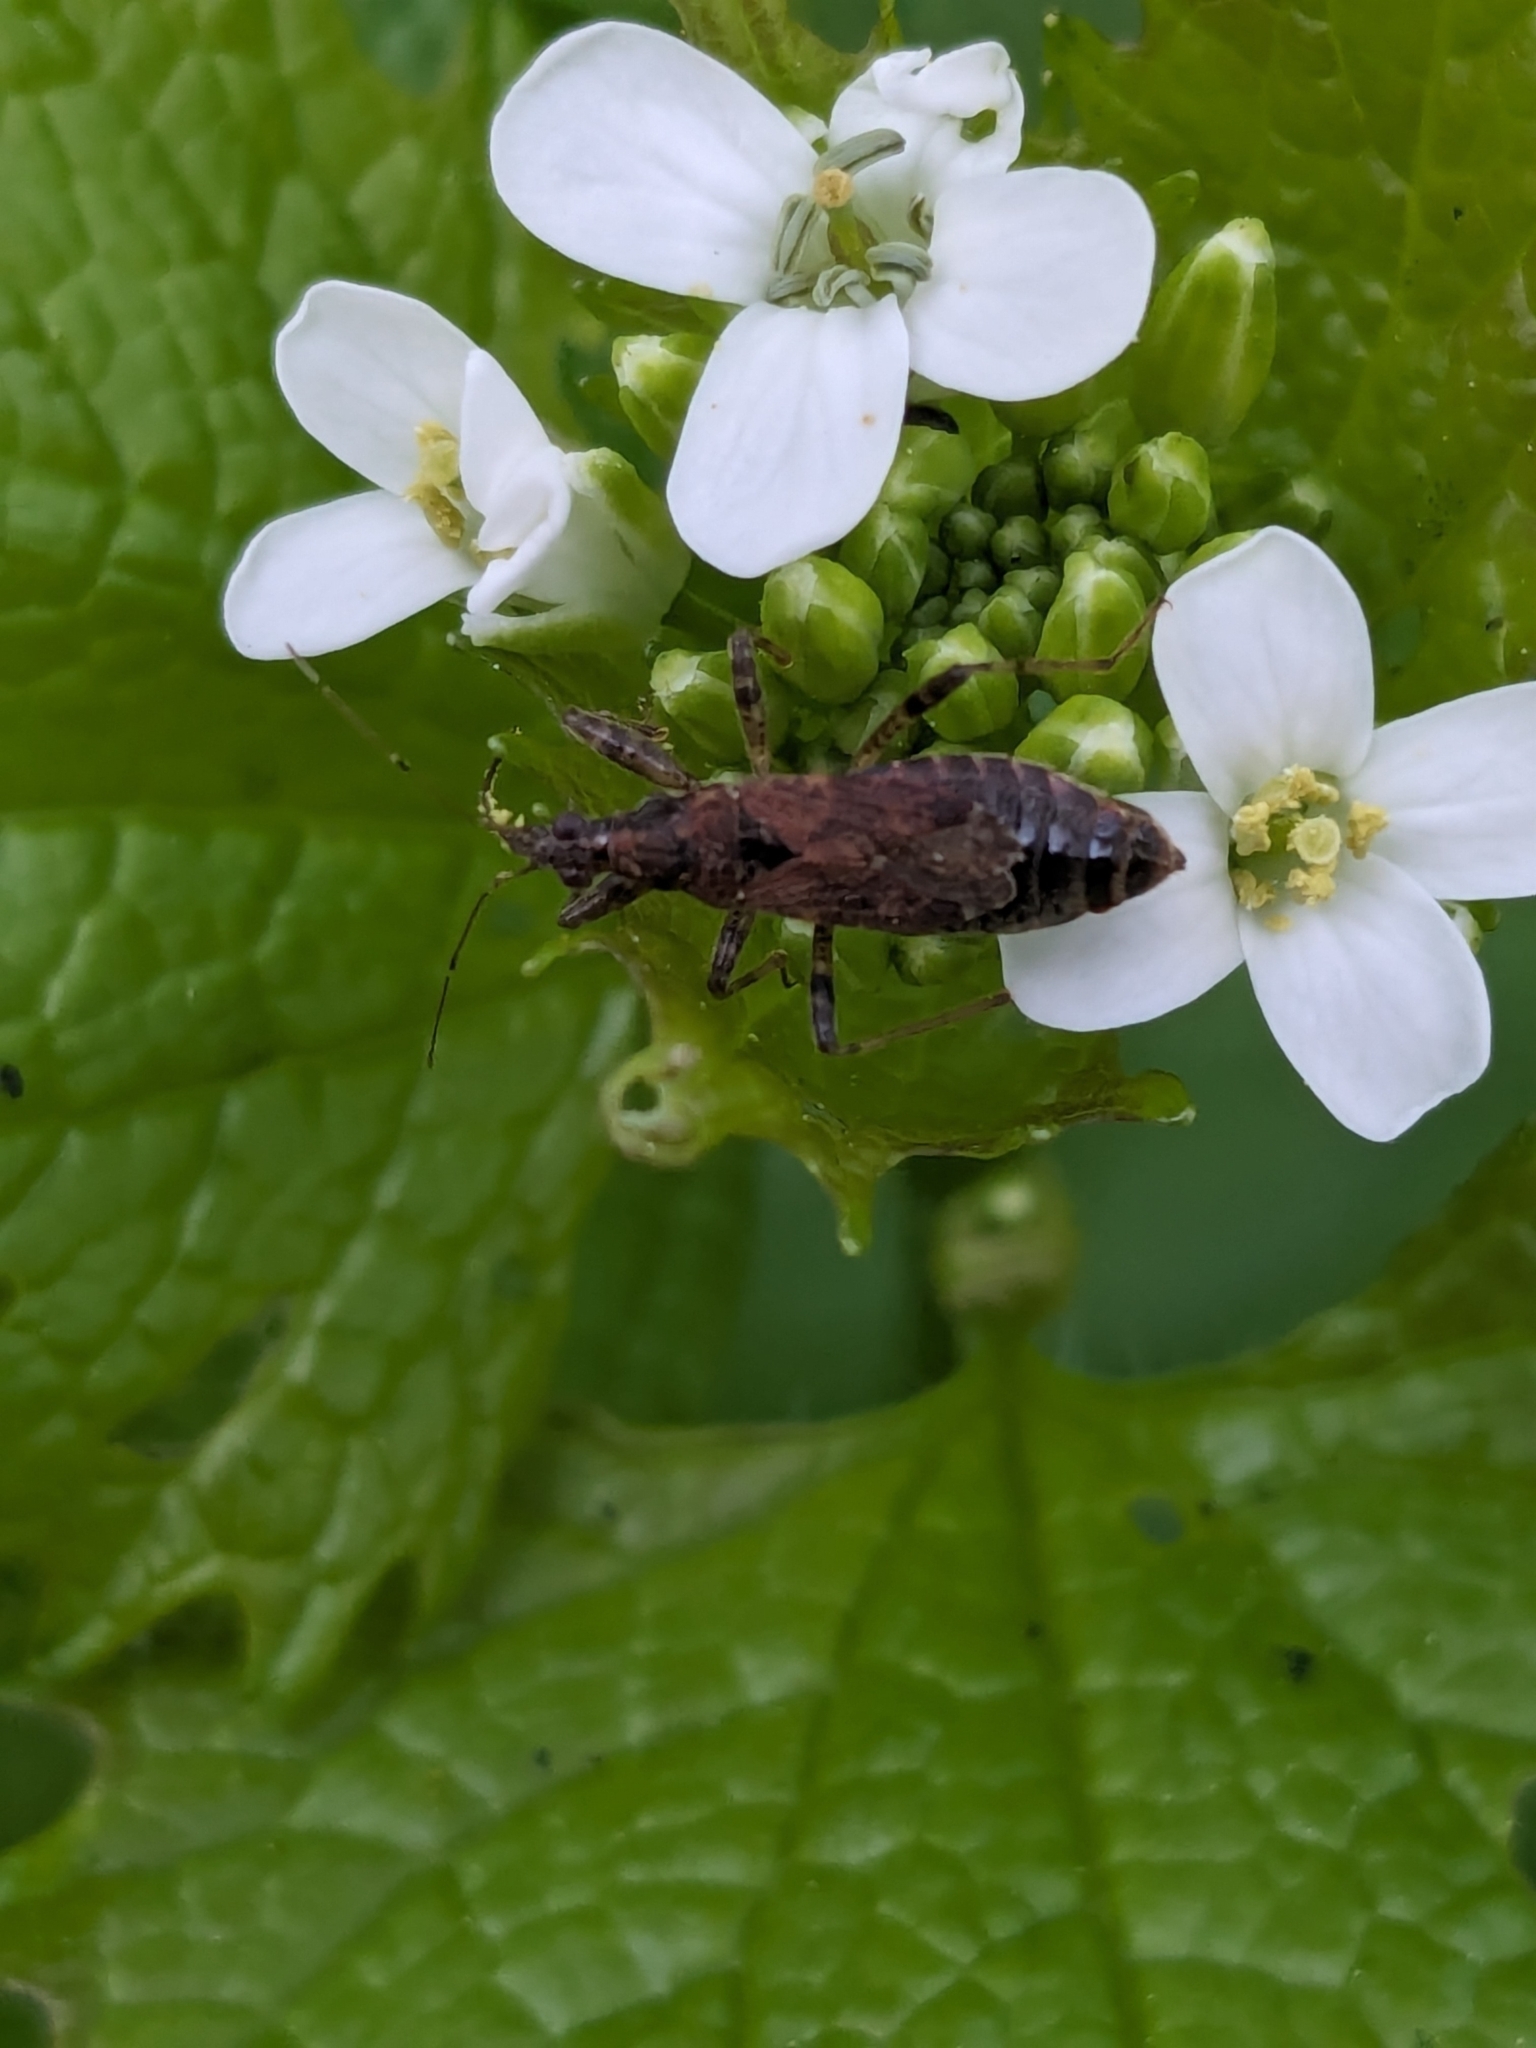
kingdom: Animalia
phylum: Arthropoda
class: Insecta
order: Hemiptera
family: Nabidae
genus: Himacerus
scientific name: Himacerus mirmicoides
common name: Ant damsel bug
